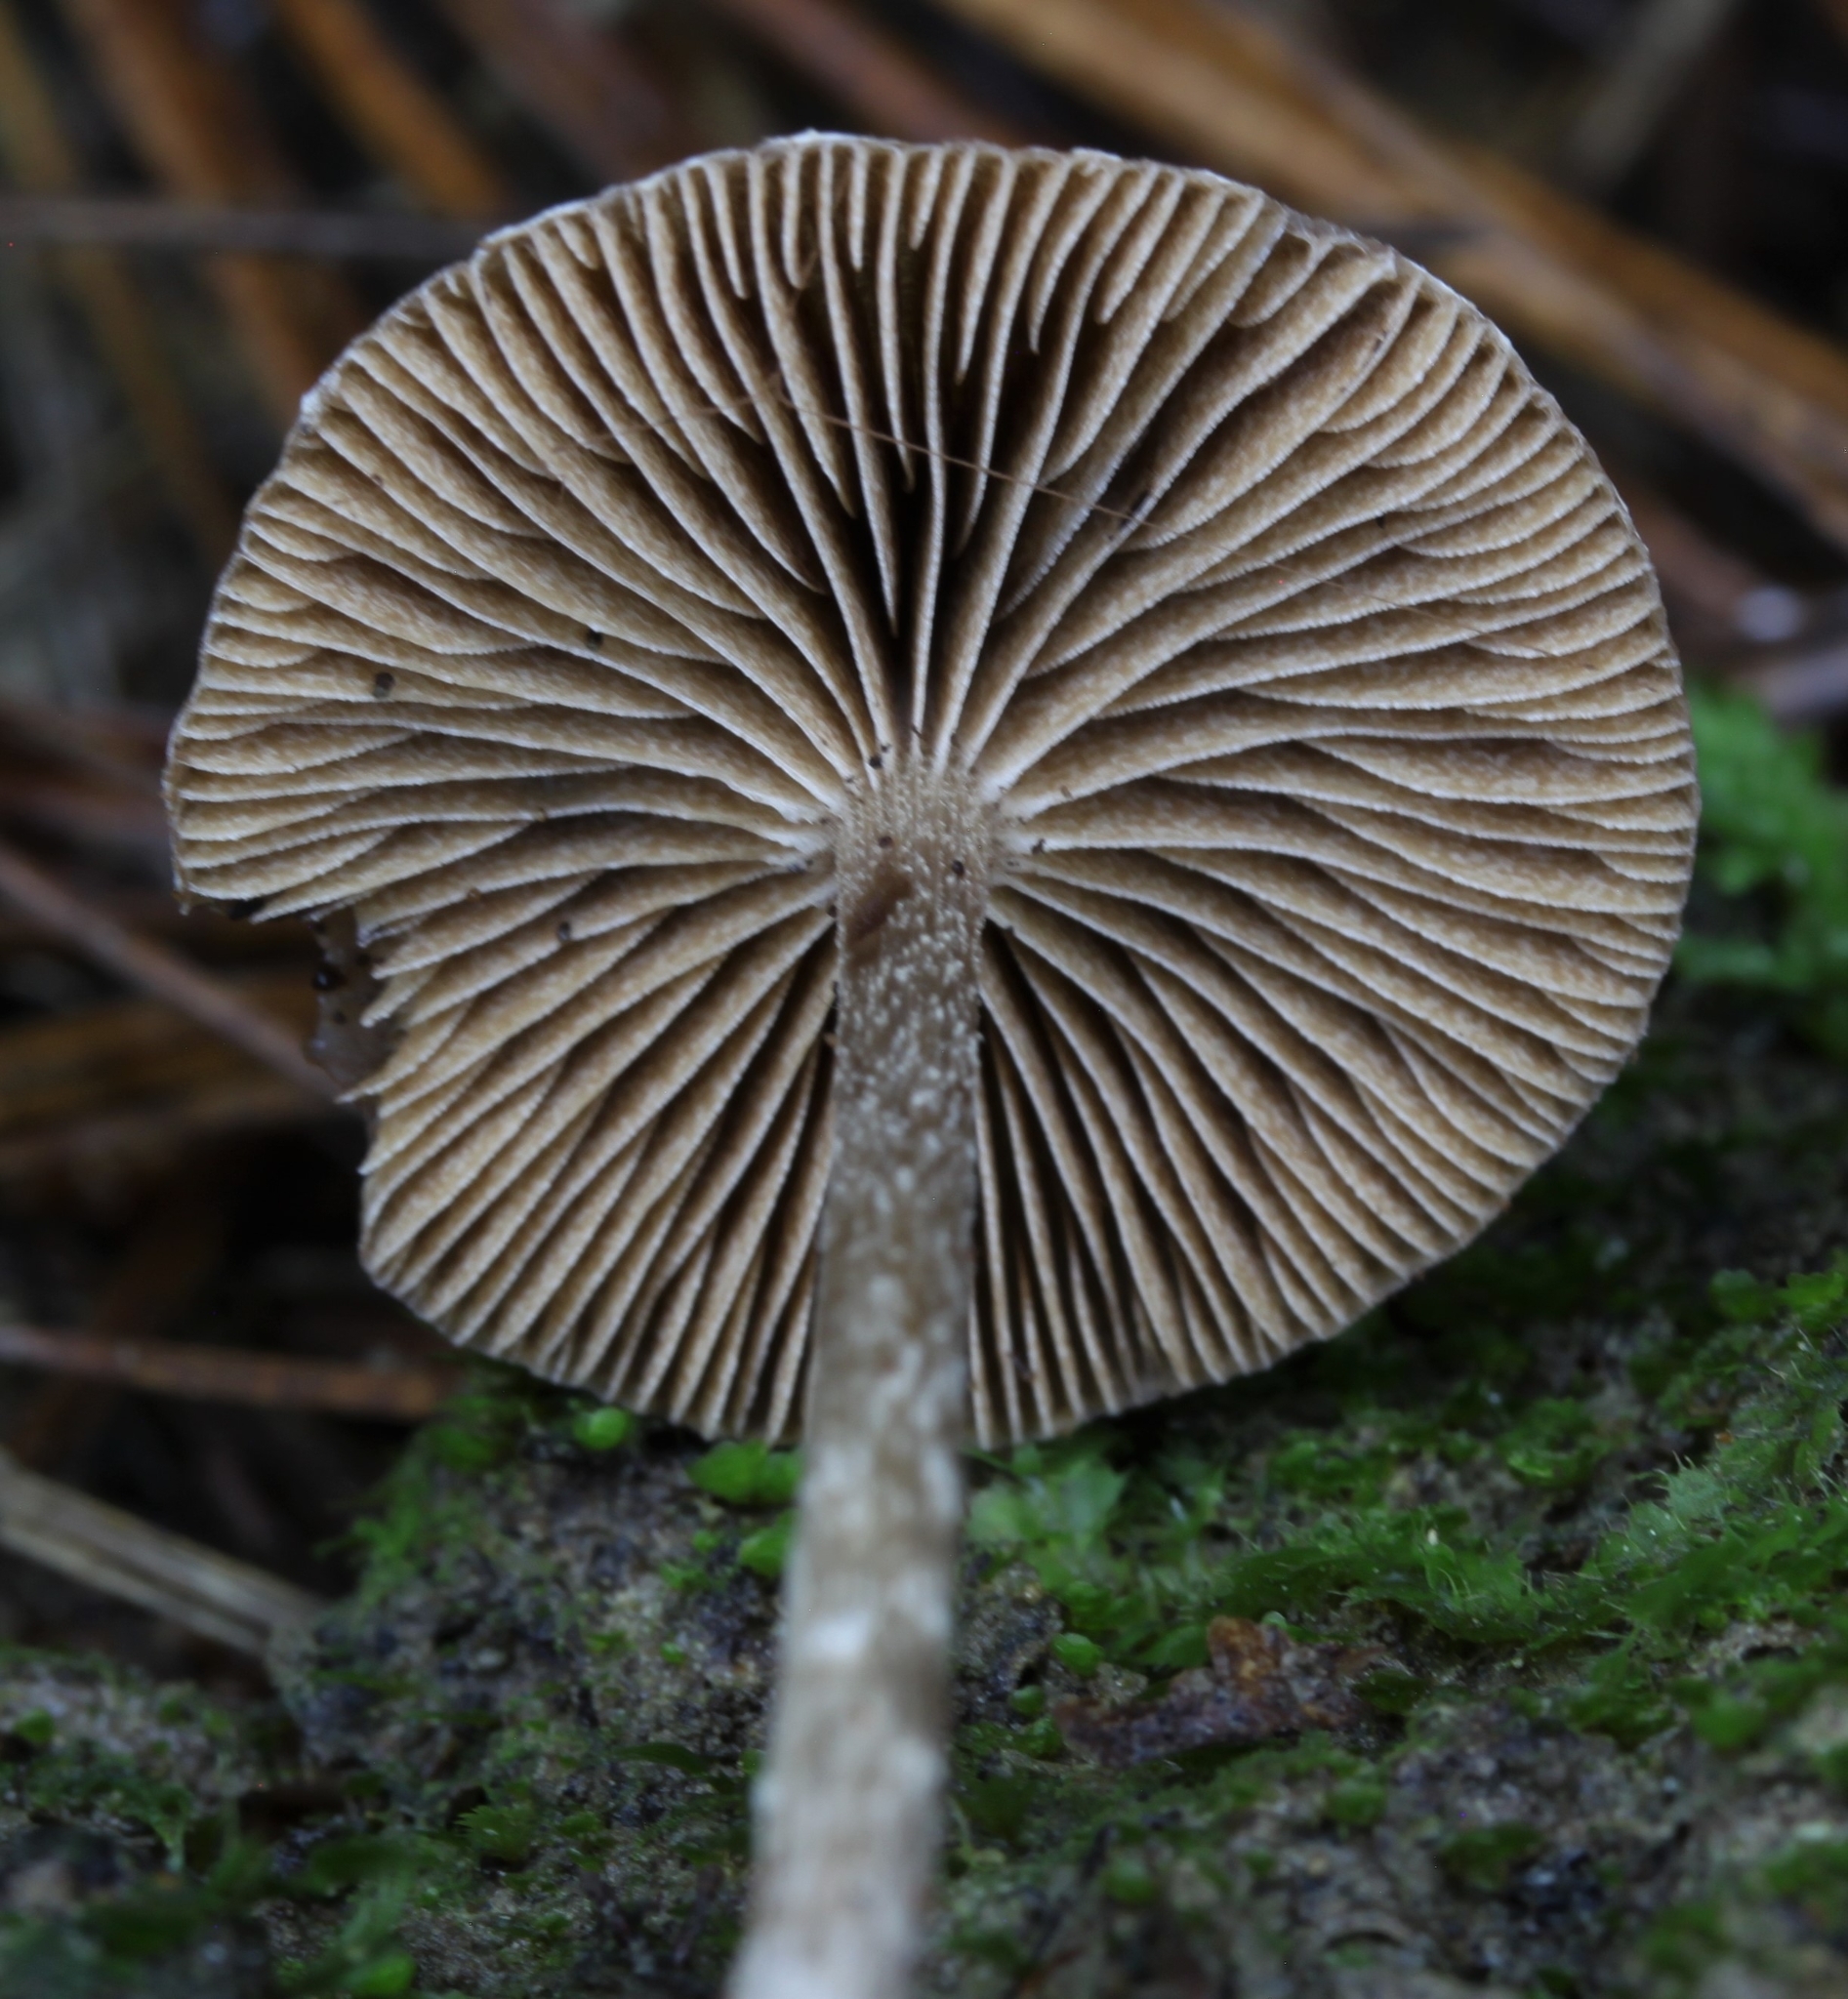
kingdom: Fungi
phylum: Basidiomycota
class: Agaricomycetes
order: Agaricales
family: Strophariaceae
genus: Deconica
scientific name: Deconica novae-zelandiae
